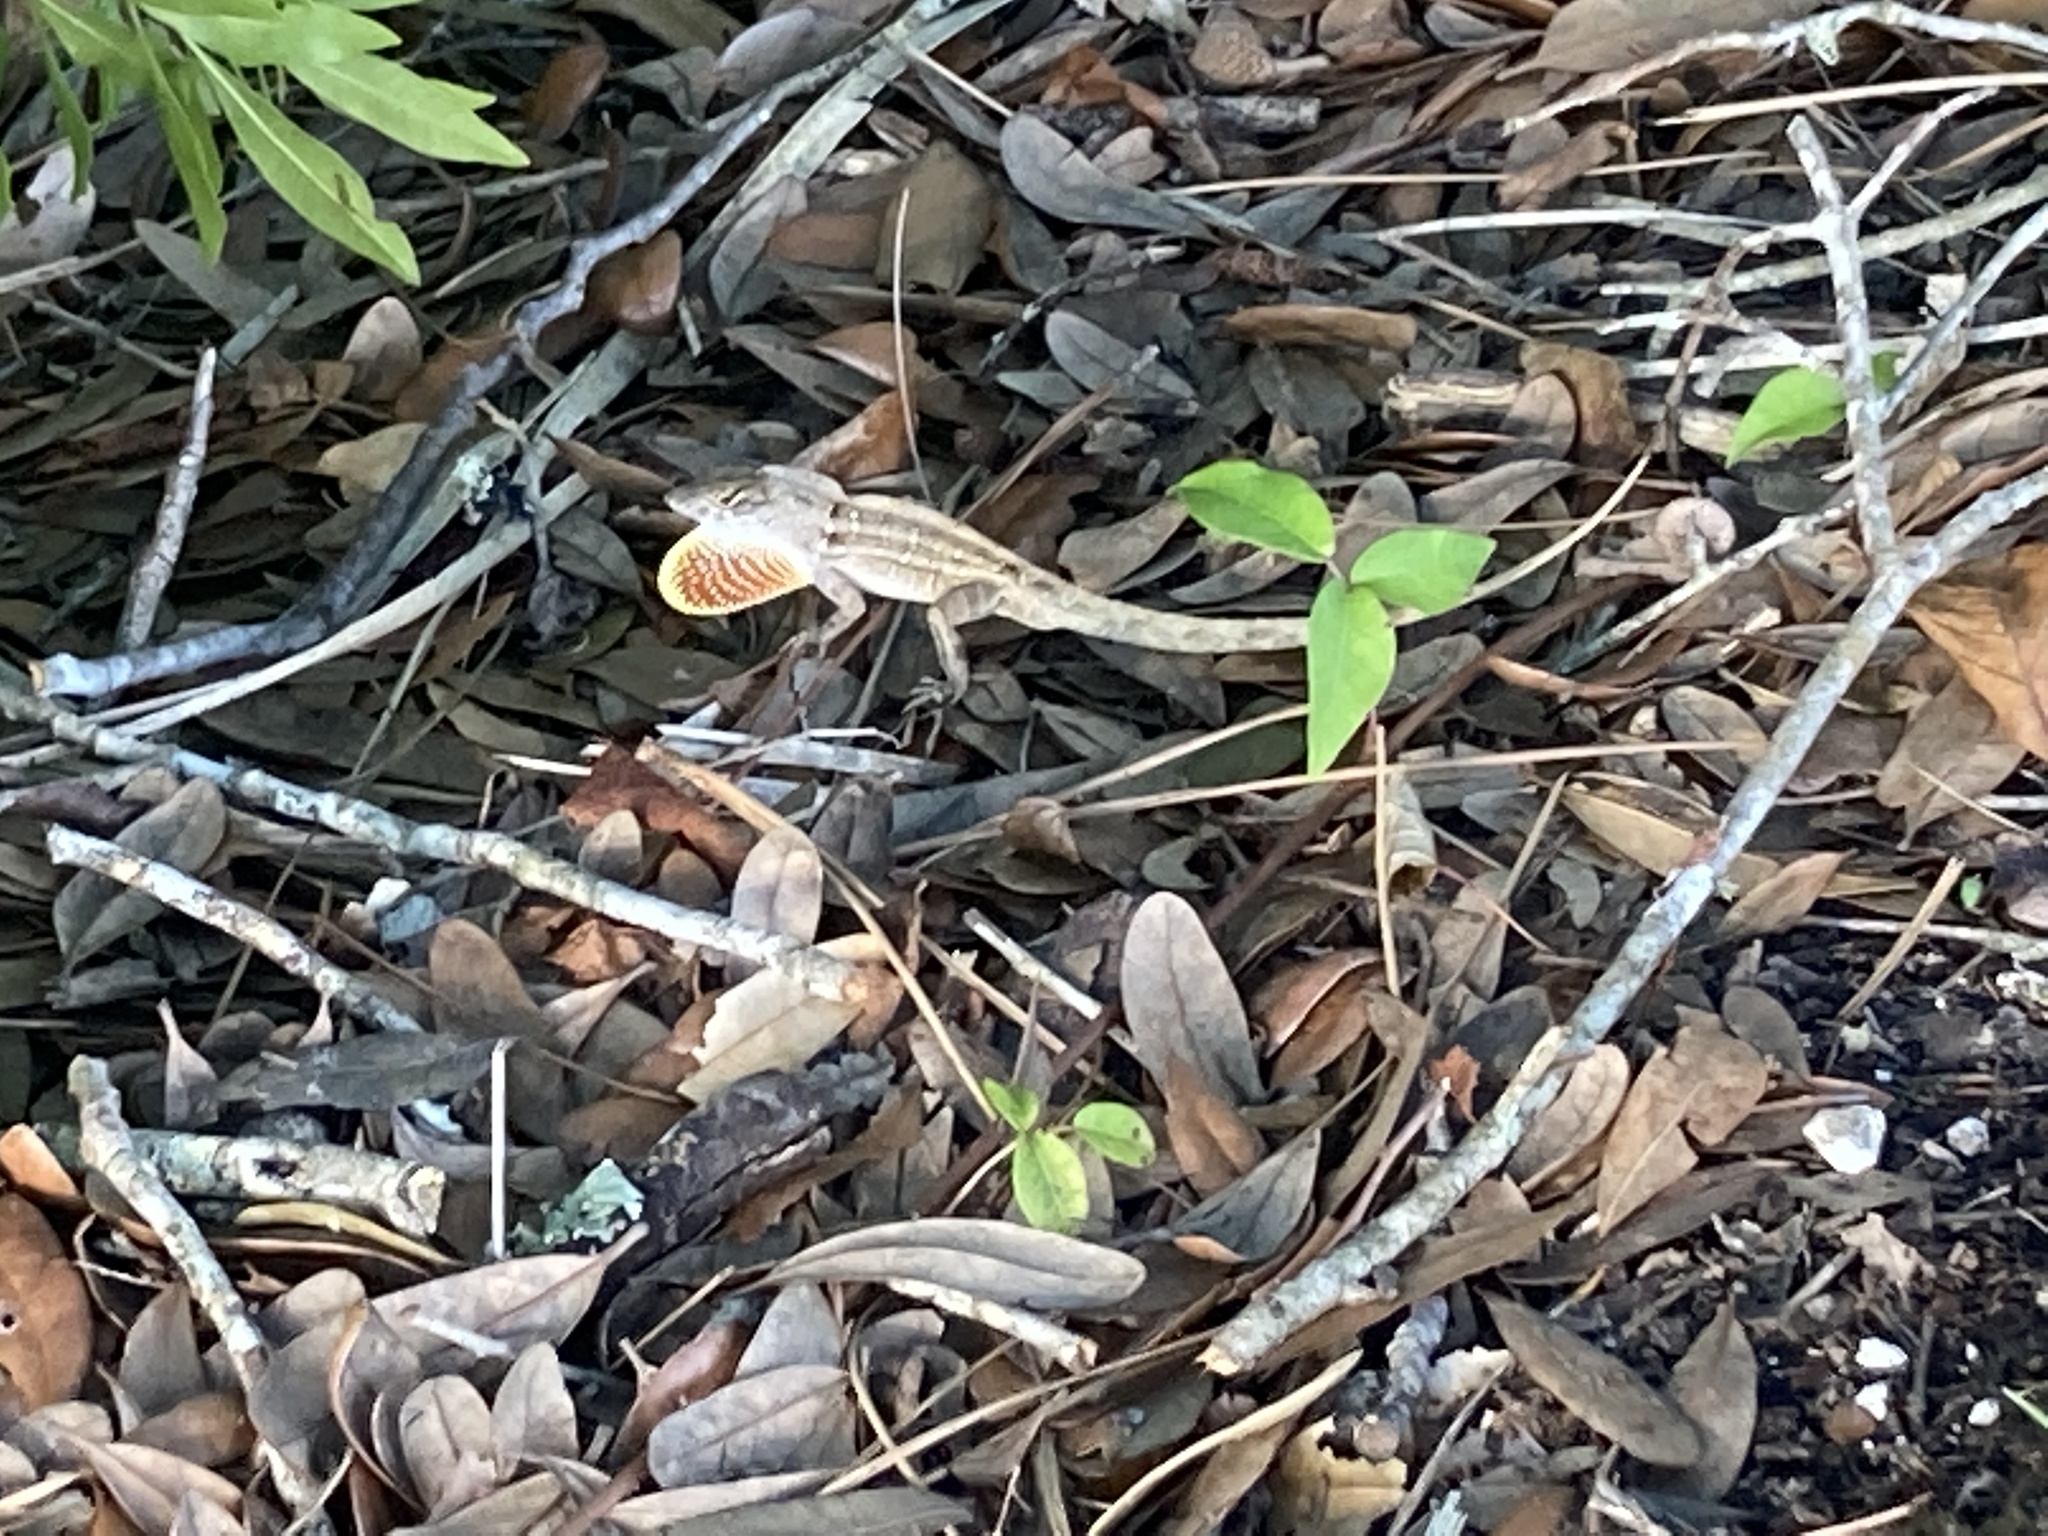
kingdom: Animalia
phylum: Chordata
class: Squamata
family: Dactyloidae
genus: Anolis
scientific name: Anolis sagrei
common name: Brown anole
